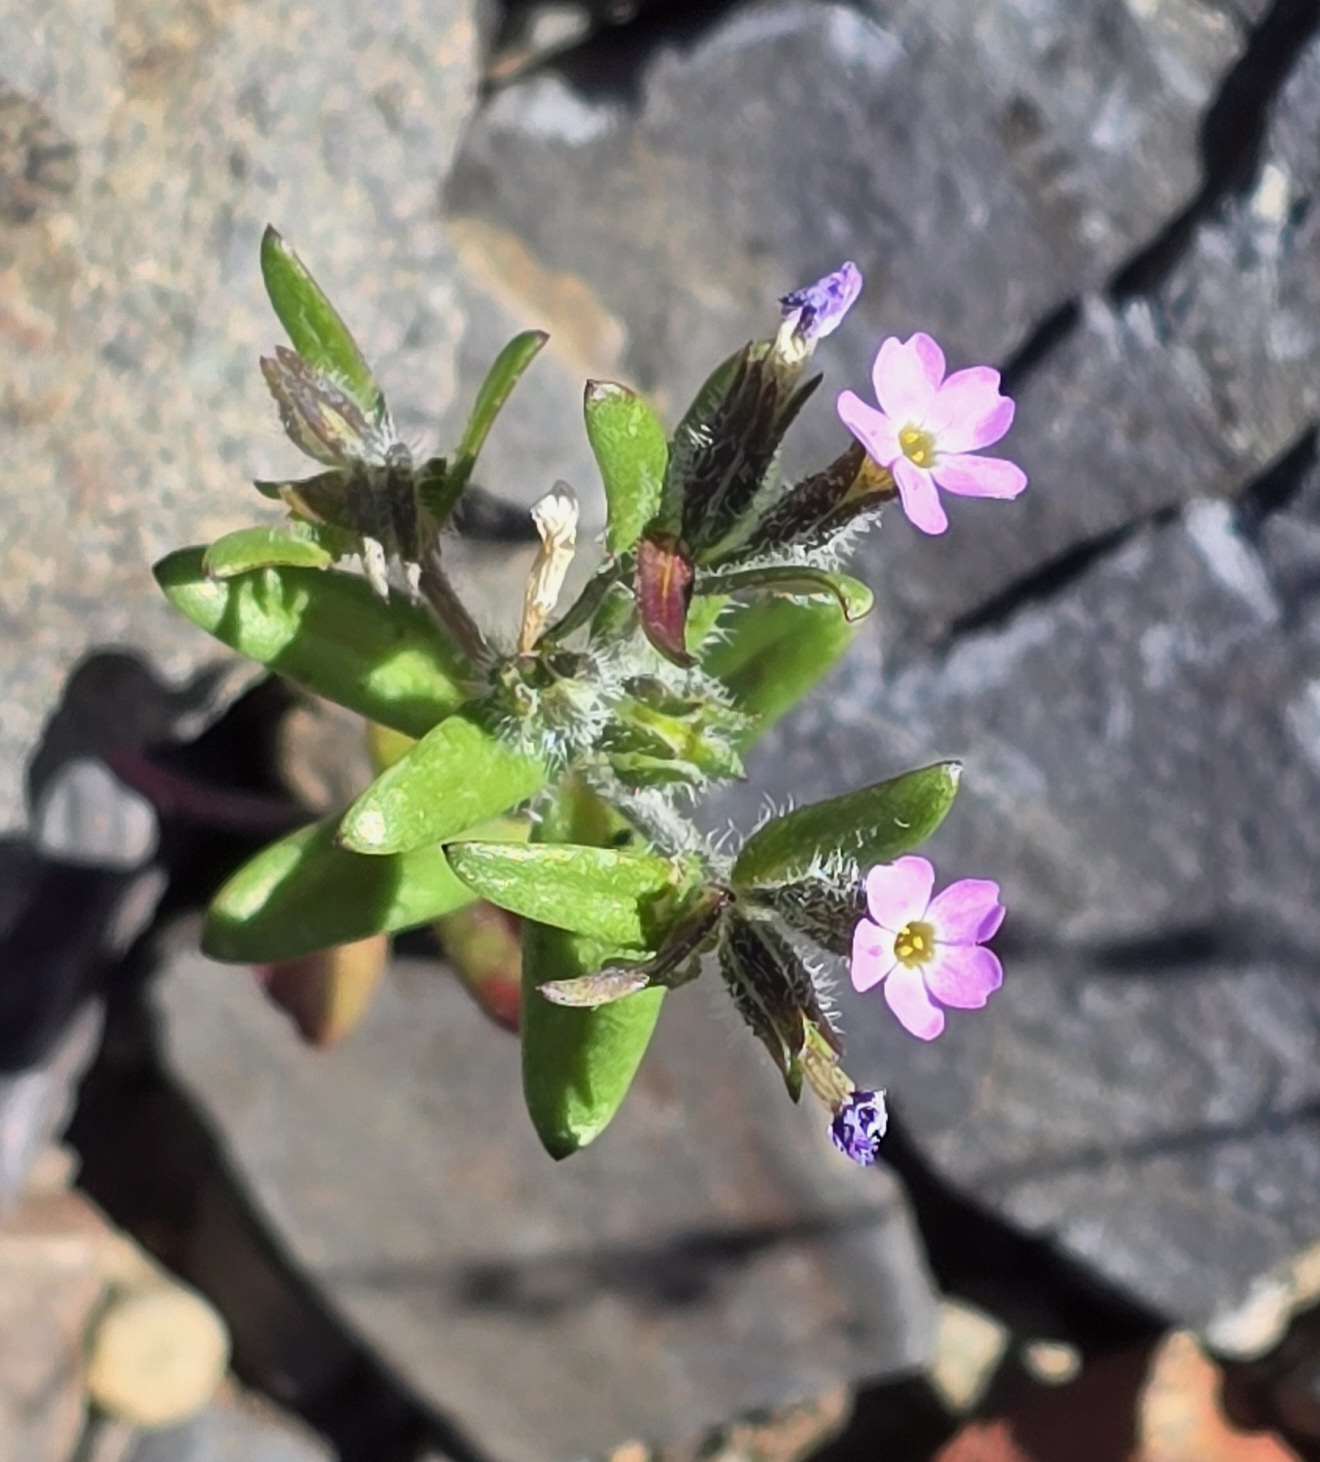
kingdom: Plantae
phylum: Tracheophyta
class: Magnoliopsida
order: Ericales
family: Polemoniaceae
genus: Phlox
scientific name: Phlox gracilis
